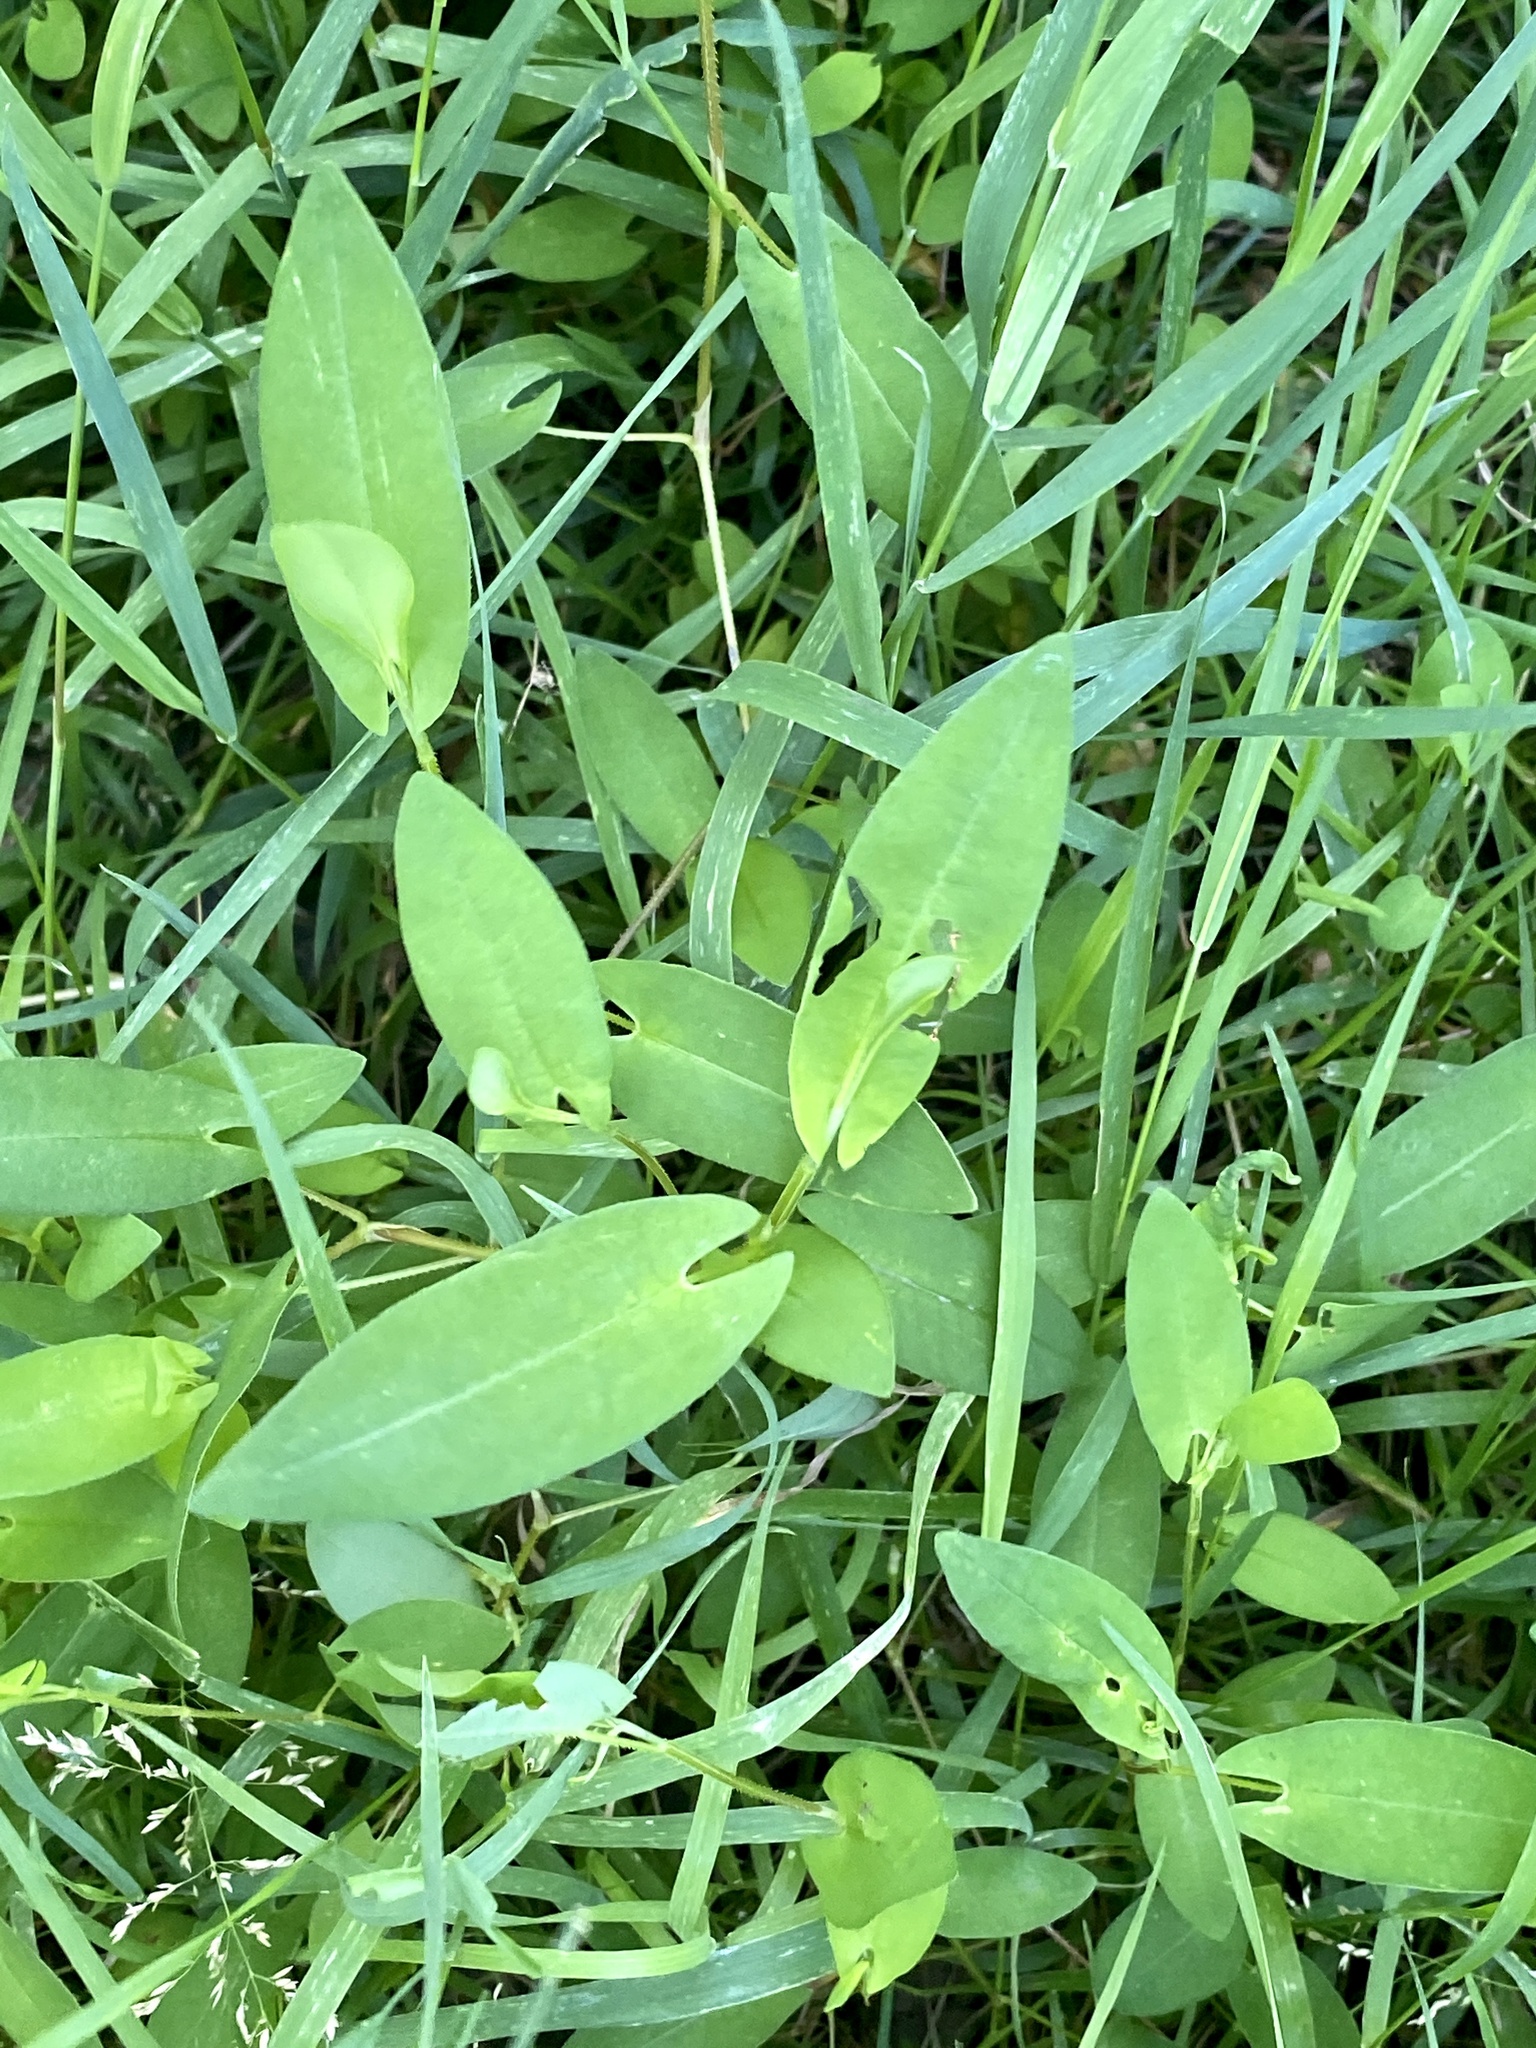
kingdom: Plantae
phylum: Tracheophyta
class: Magnoliopsida
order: Caryophyllales
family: Polygonaceae
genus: Persicaria
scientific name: Persicaria sagittata
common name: American tearthumb
